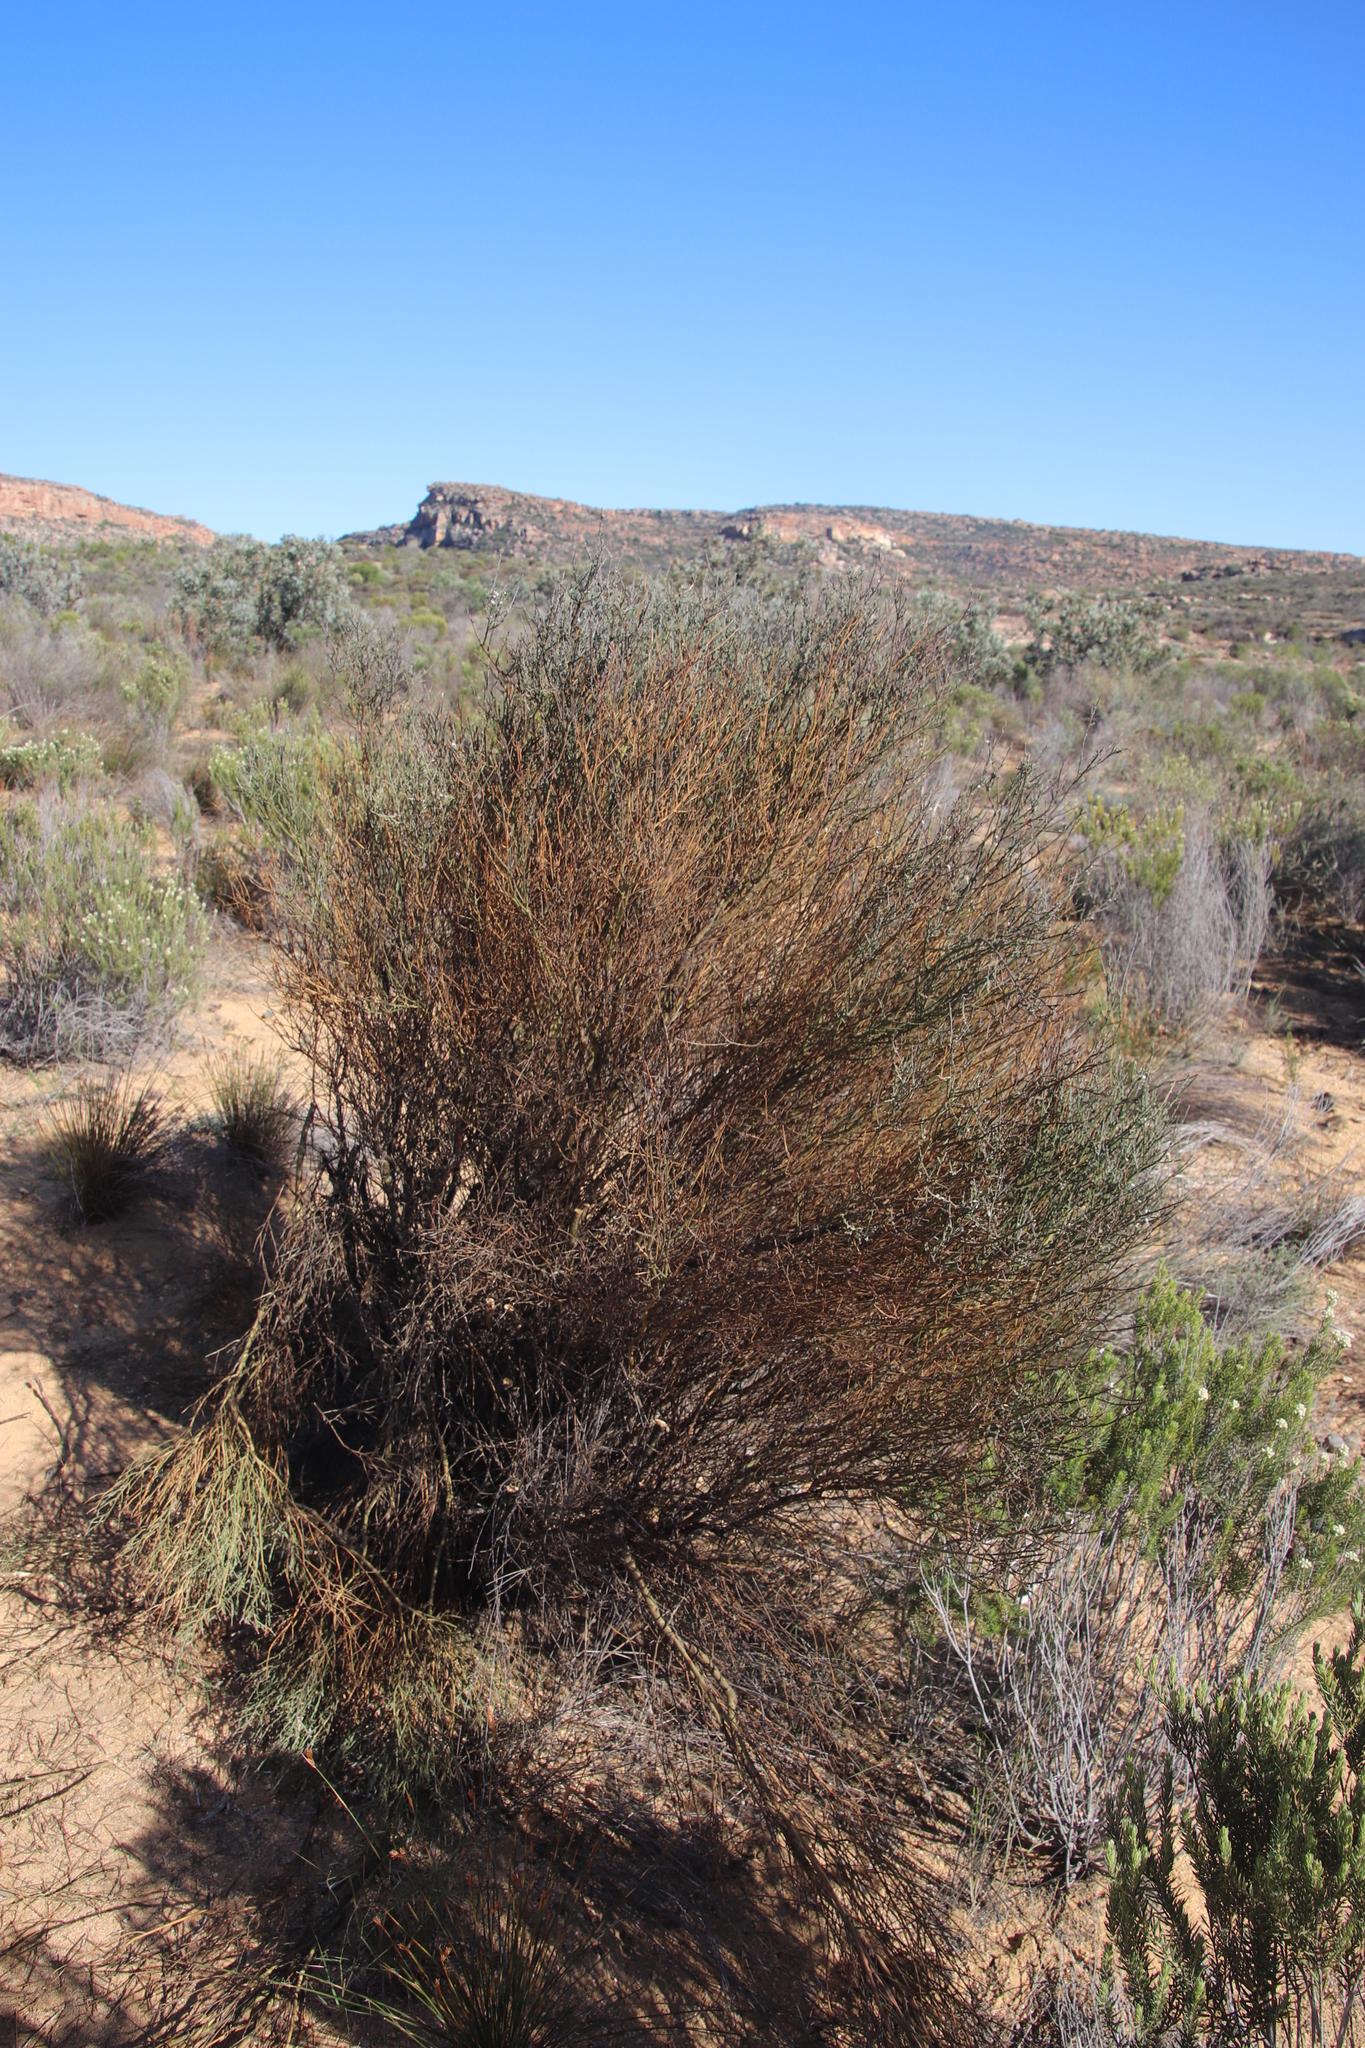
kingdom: Plantae
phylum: Tracheophyta
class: Magnoliopsida
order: Fabales
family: Polygalaceae
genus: Muraltia
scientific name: Muraltia spinosa
